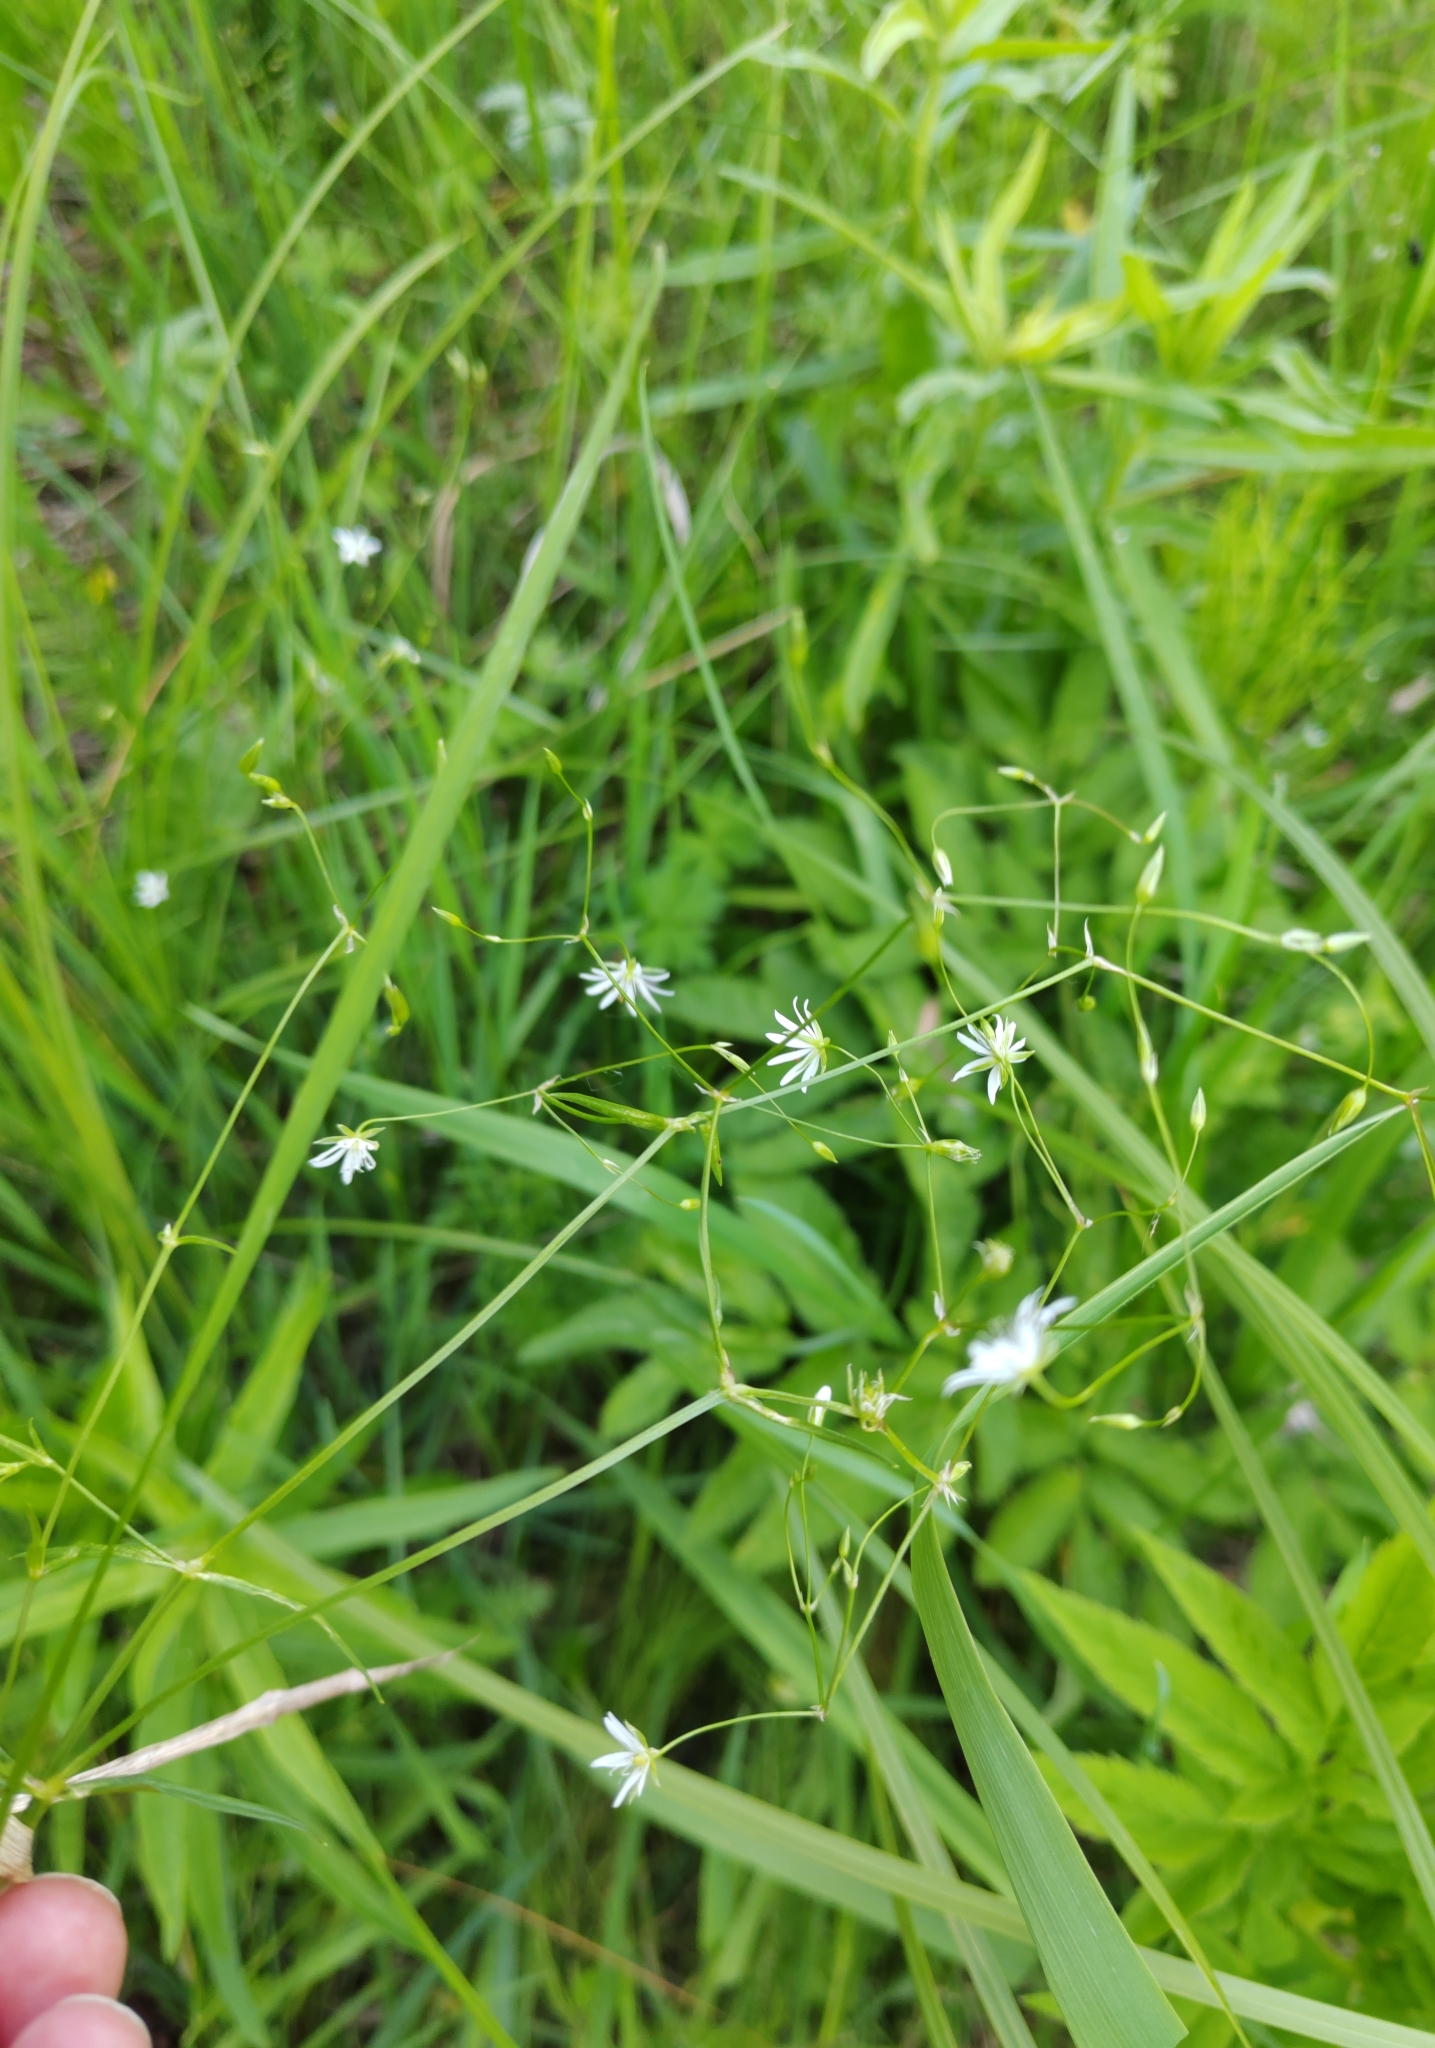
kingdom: Plantae
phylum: Tracheophyta
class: Magnoliopsida
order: Caryophyllales
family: Caryophyllaceae
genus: Stellaria
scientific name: Stellaria graminea
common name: Grass-like starwort
